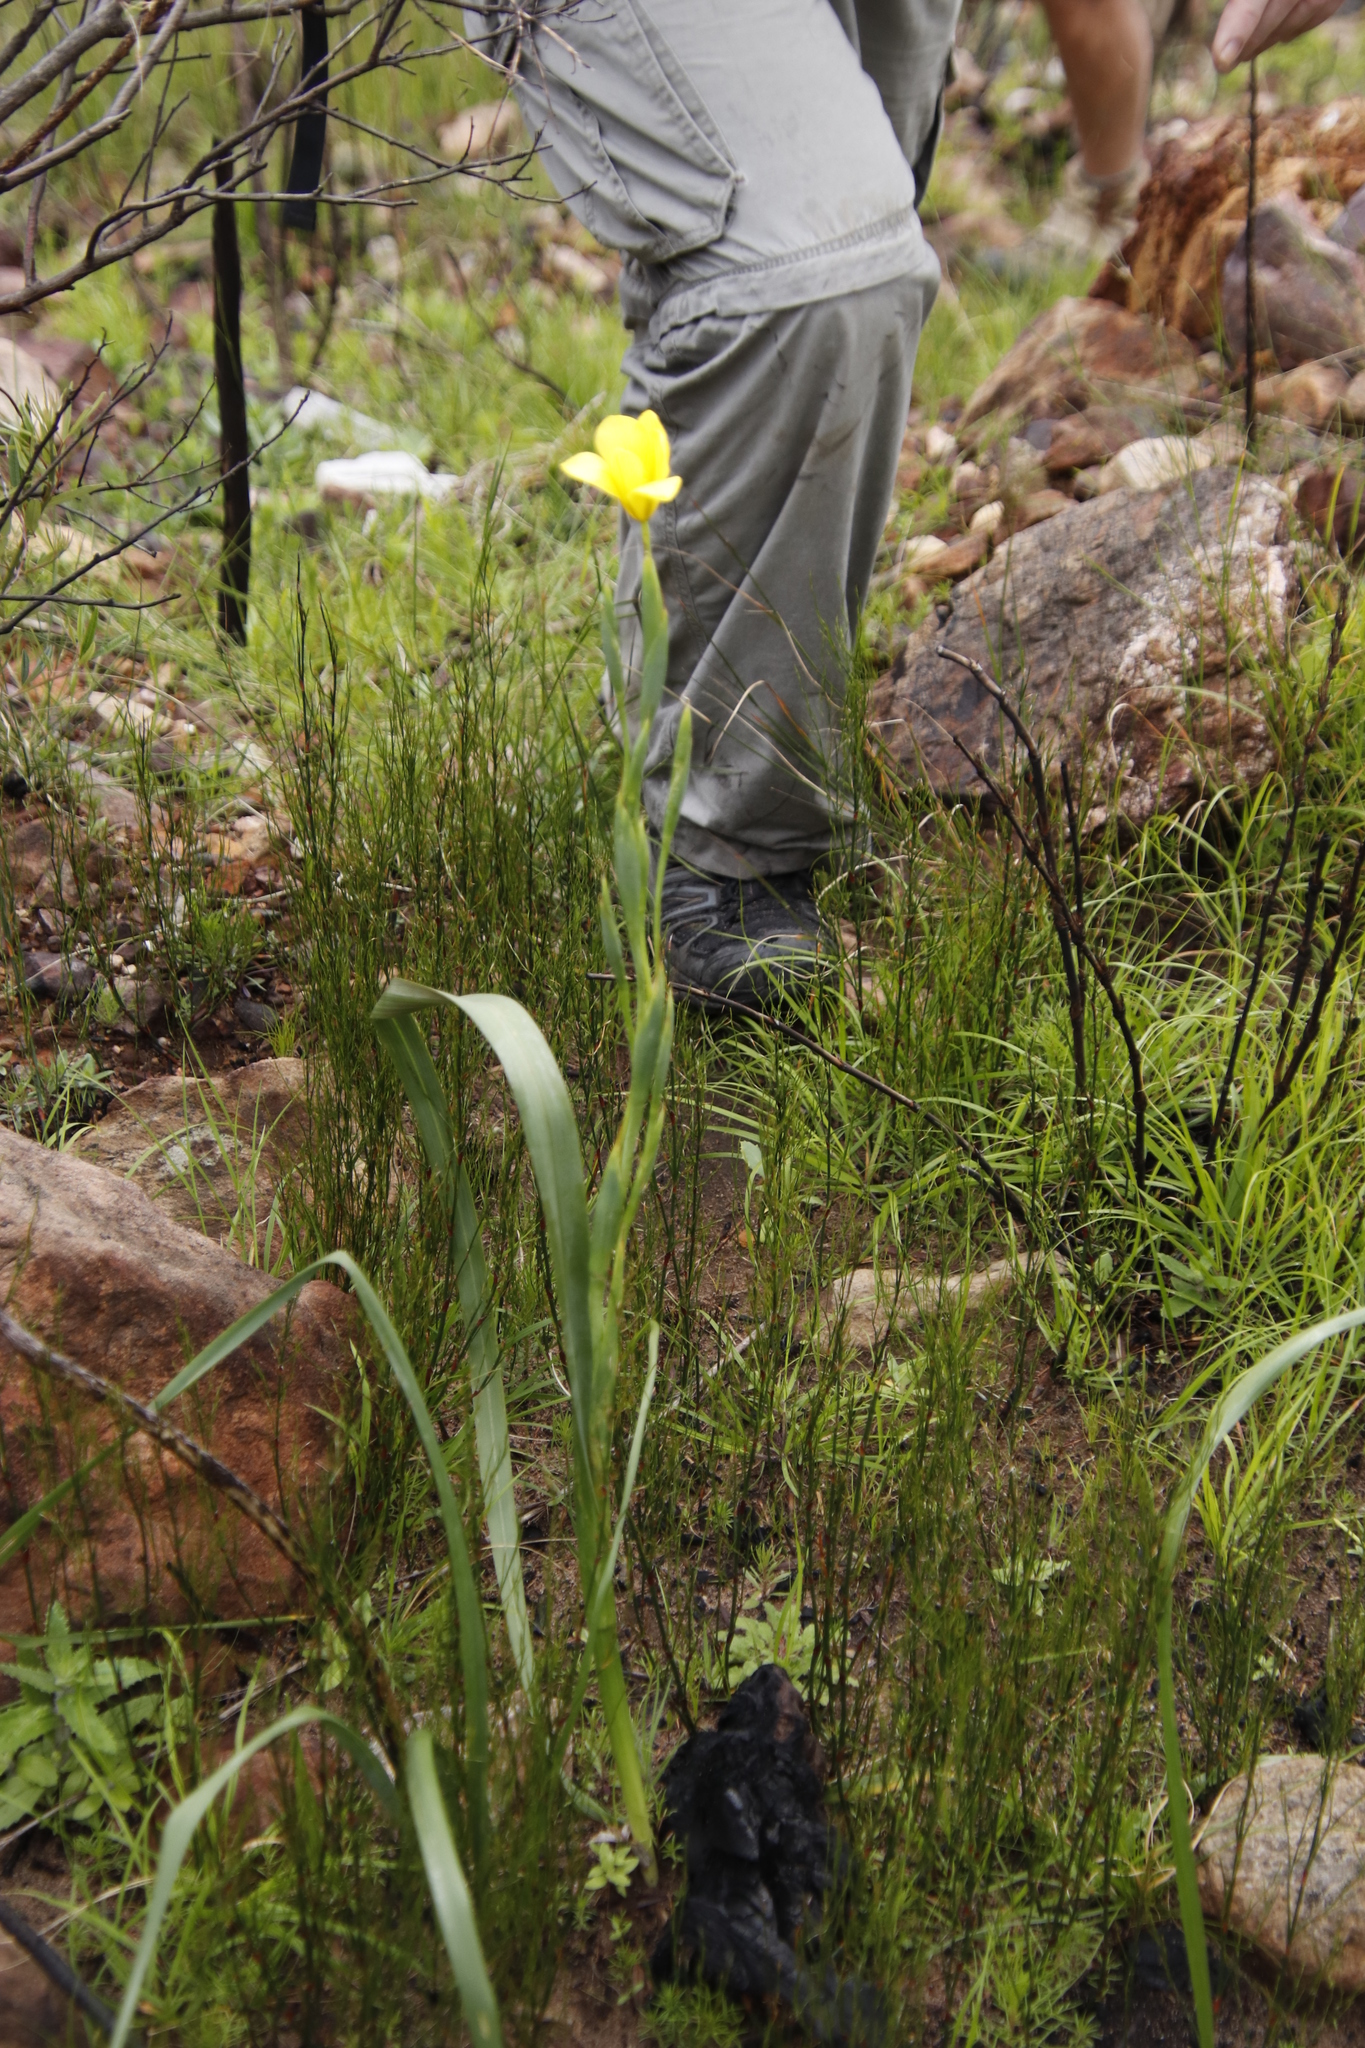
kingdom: Plantae
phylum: Tracheophyta
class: Liliopsida
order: Asparagales
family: Iridaceae
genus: Moraea
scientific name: Moraea ochroleuca
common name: Red tulp
